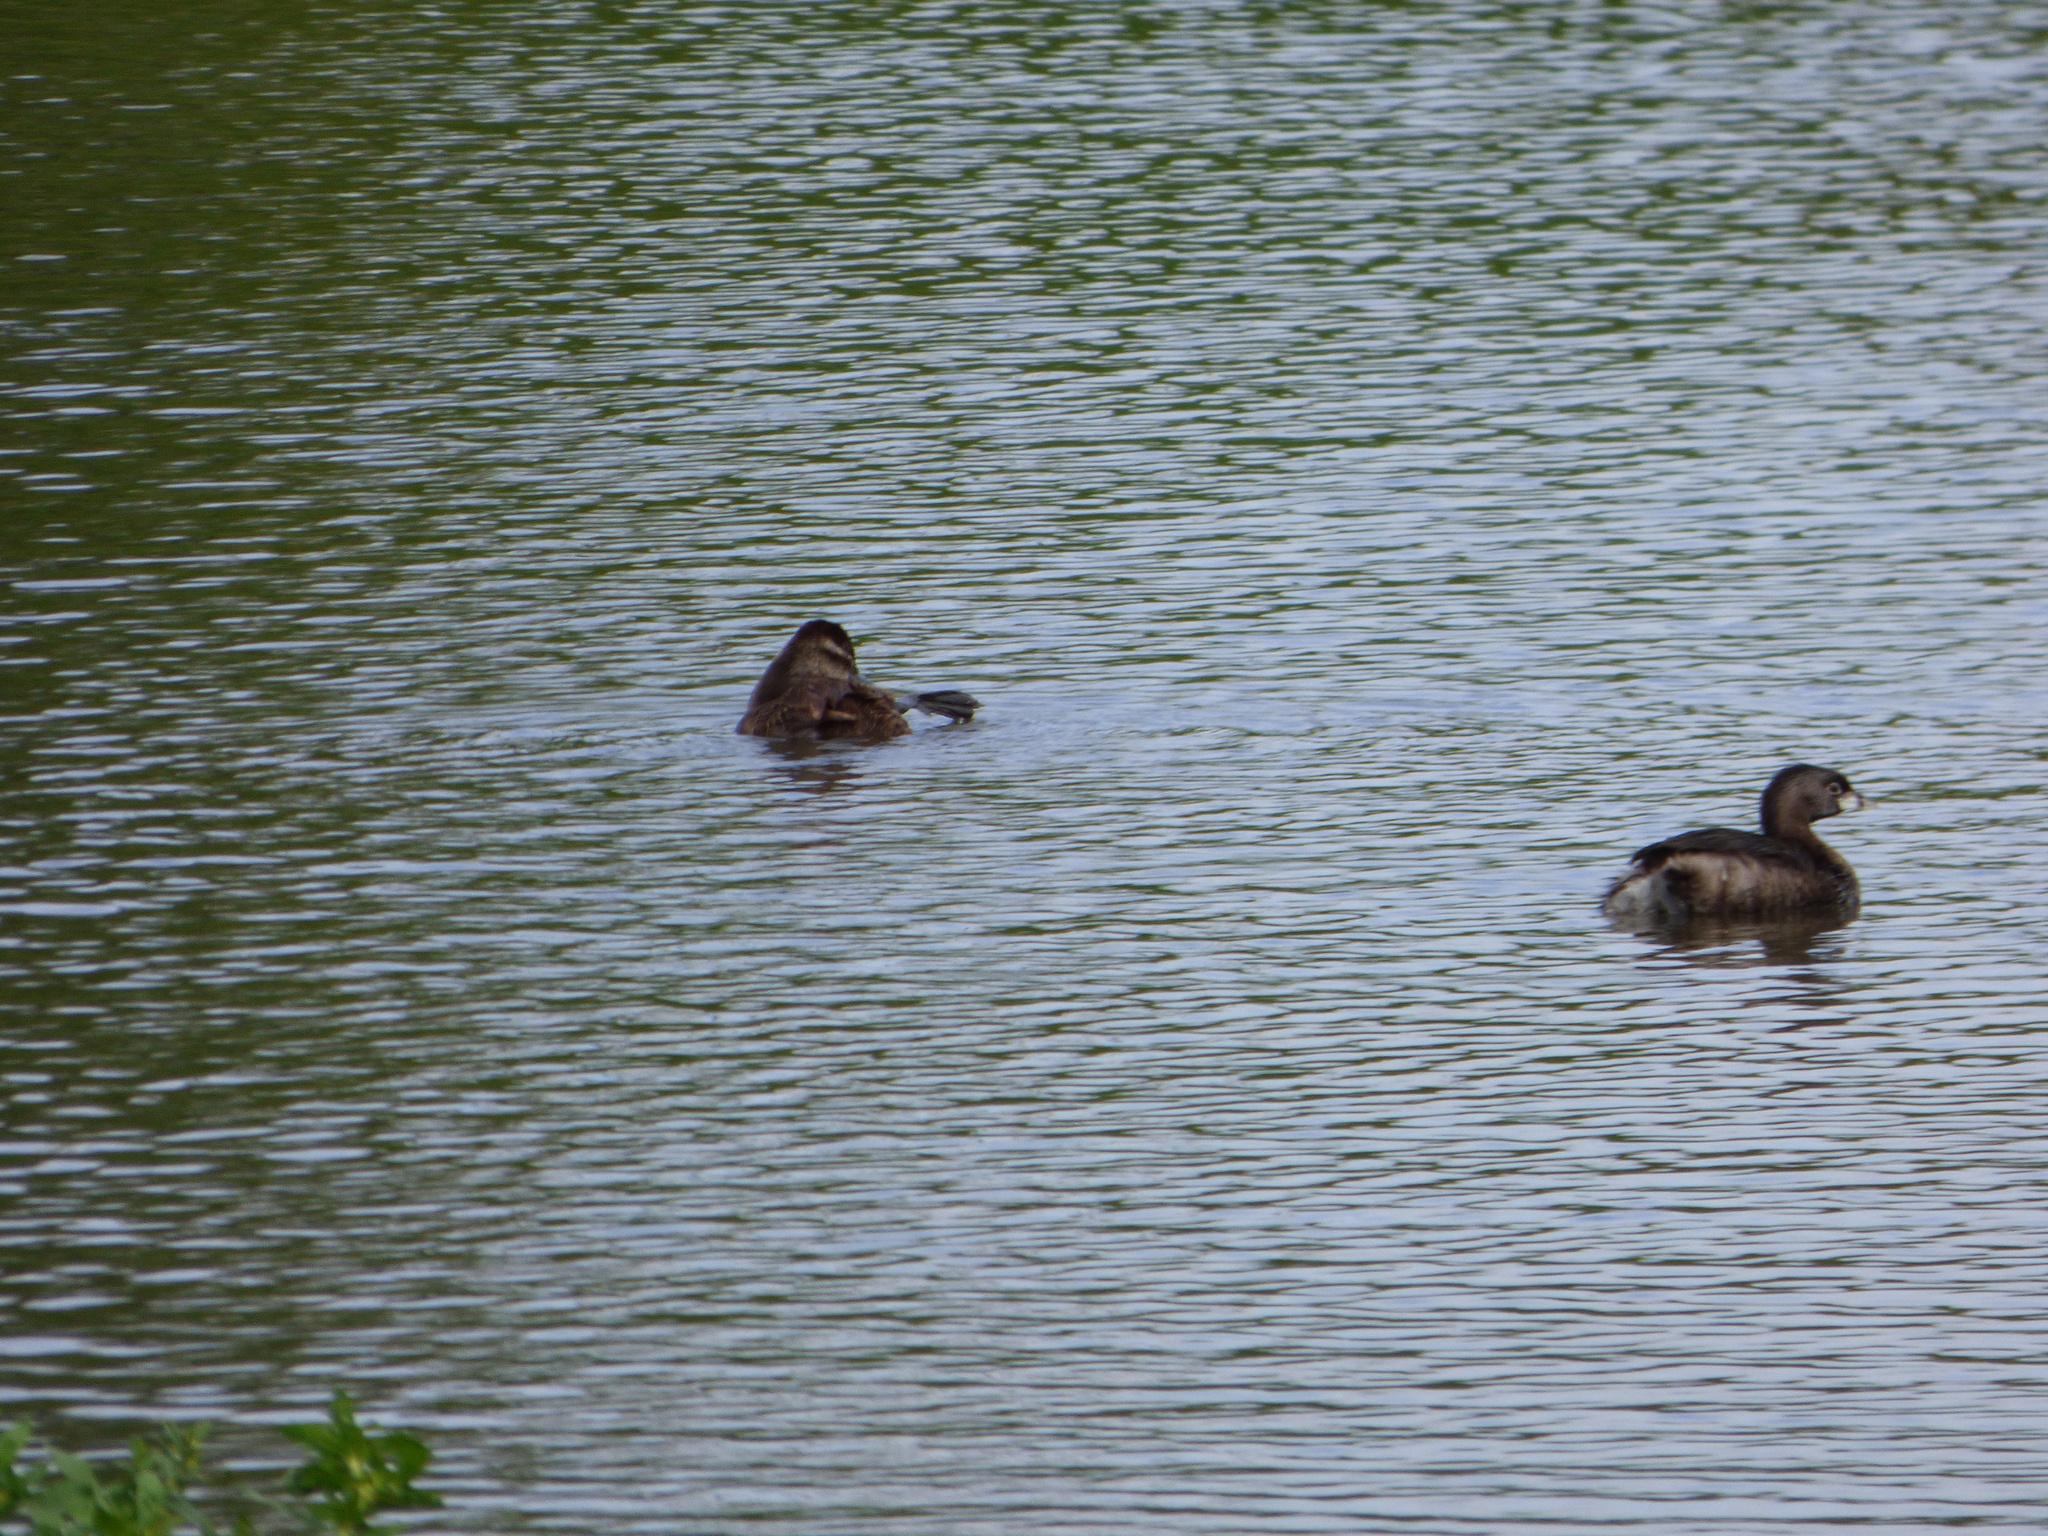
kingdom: Animalia
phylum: Chordata
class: Aves
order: Podicipediformes
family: Podicipedidae
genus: Podilymbus
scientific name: Podilymbus podiceps
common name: Pied-billed grebe
